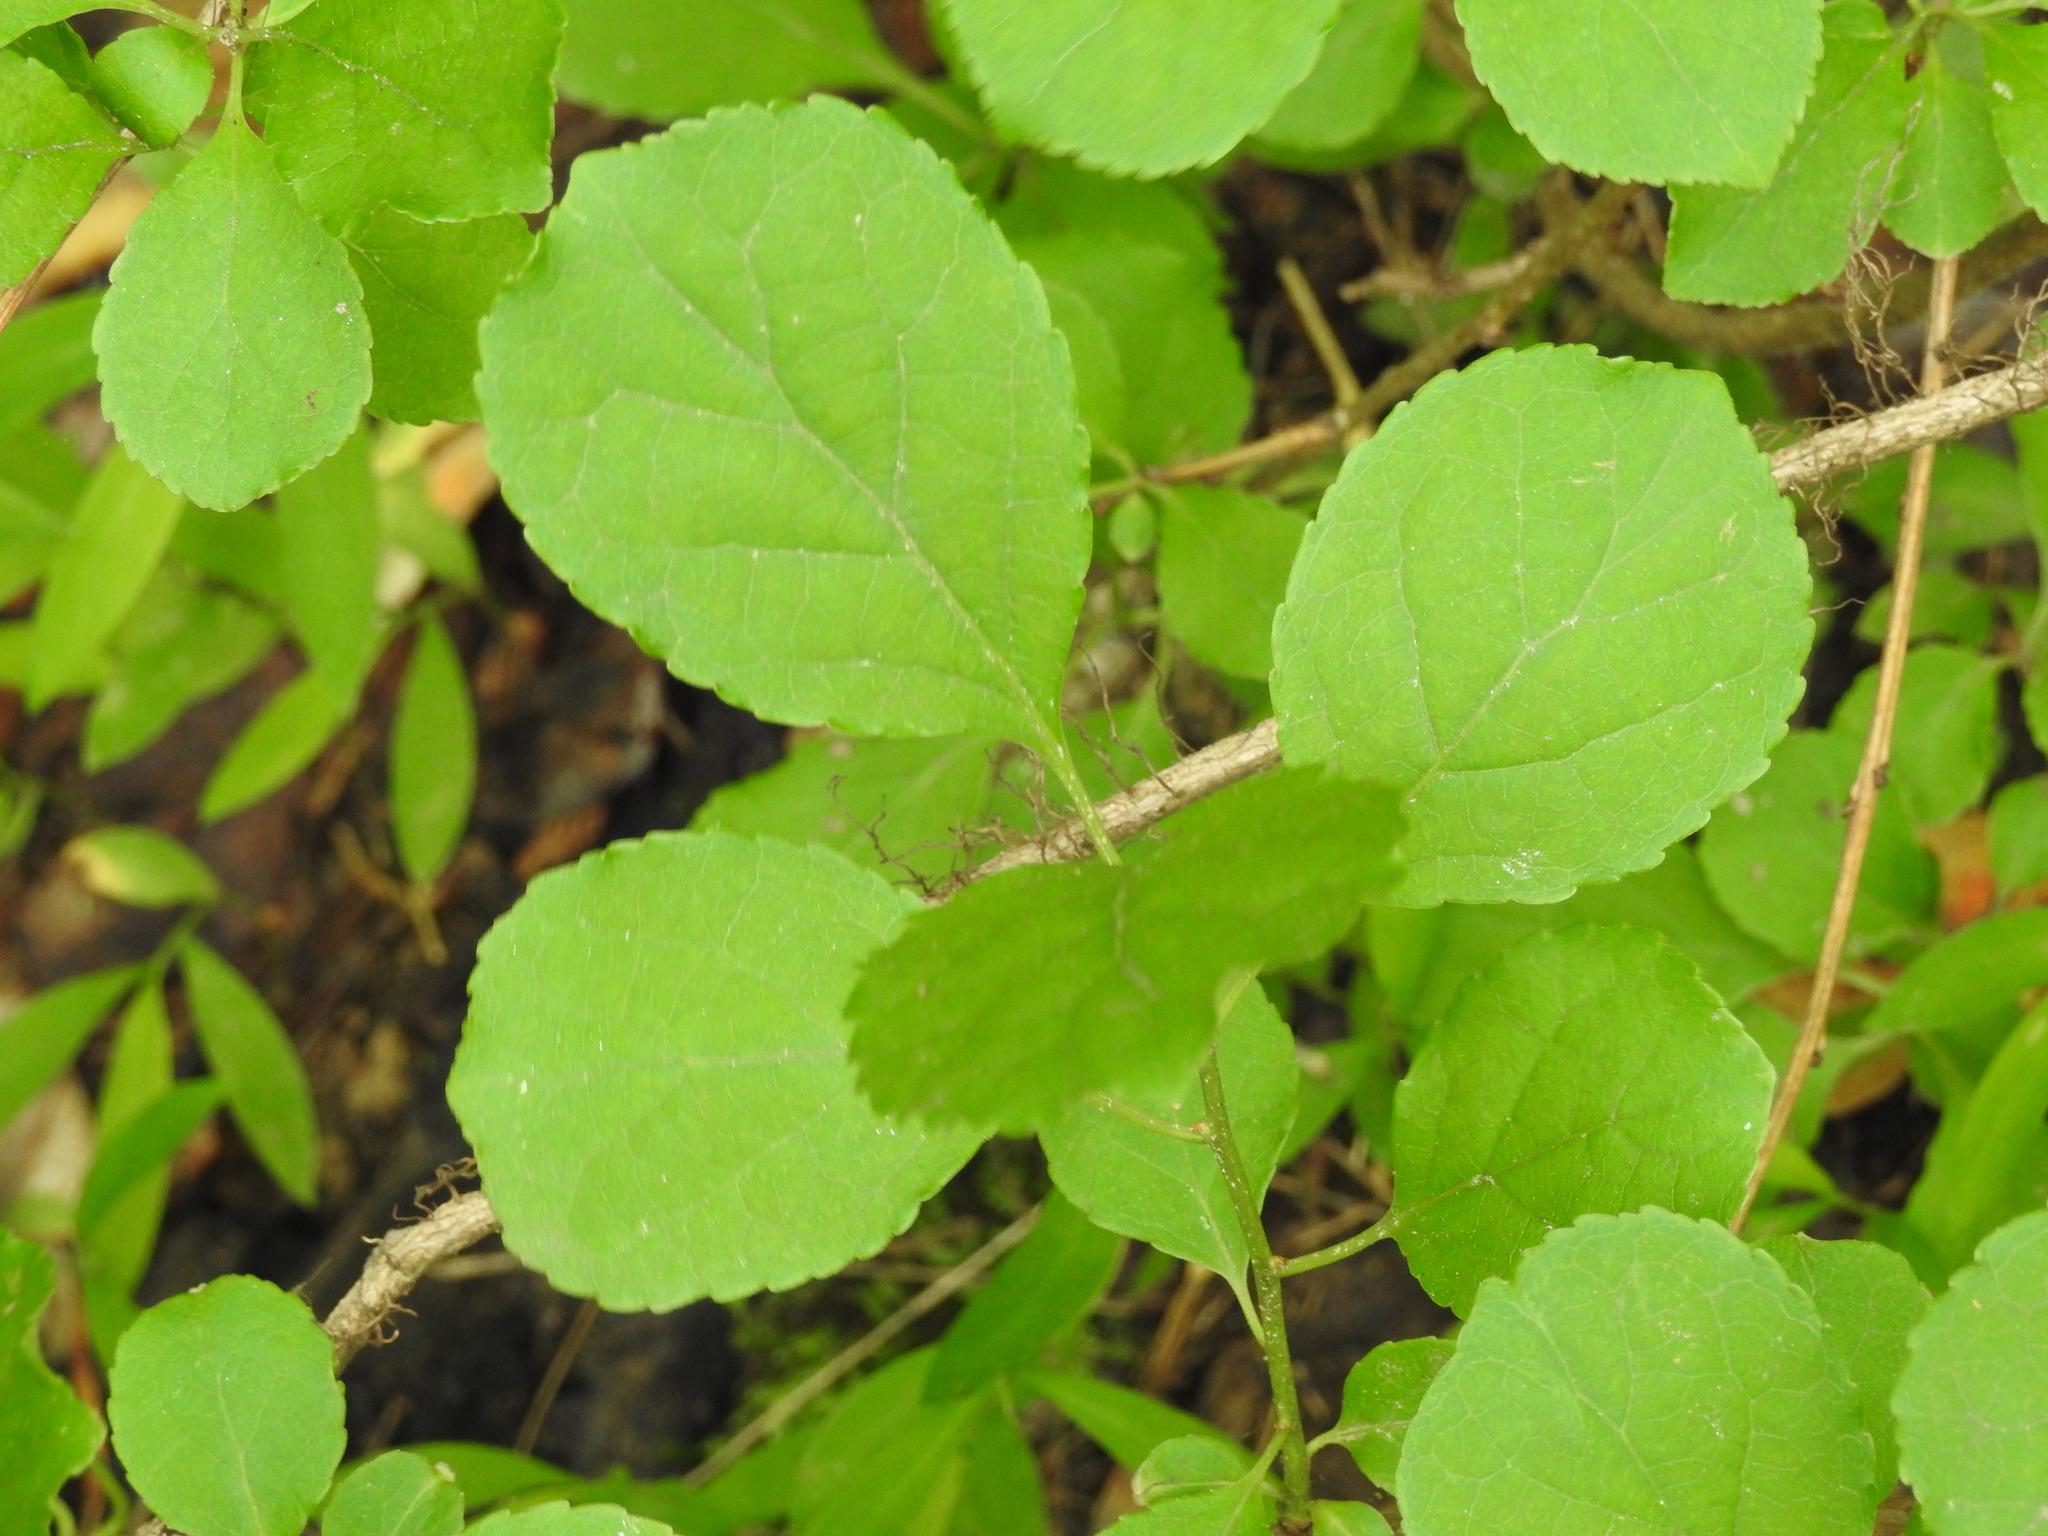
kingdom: Plantae
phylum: Tracheophyta
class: Magnoliopsida
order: Celastrales
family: Celastraceae
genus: Celastrus
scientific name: Celastrus orbiculatus
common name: Oriental bittersweet
